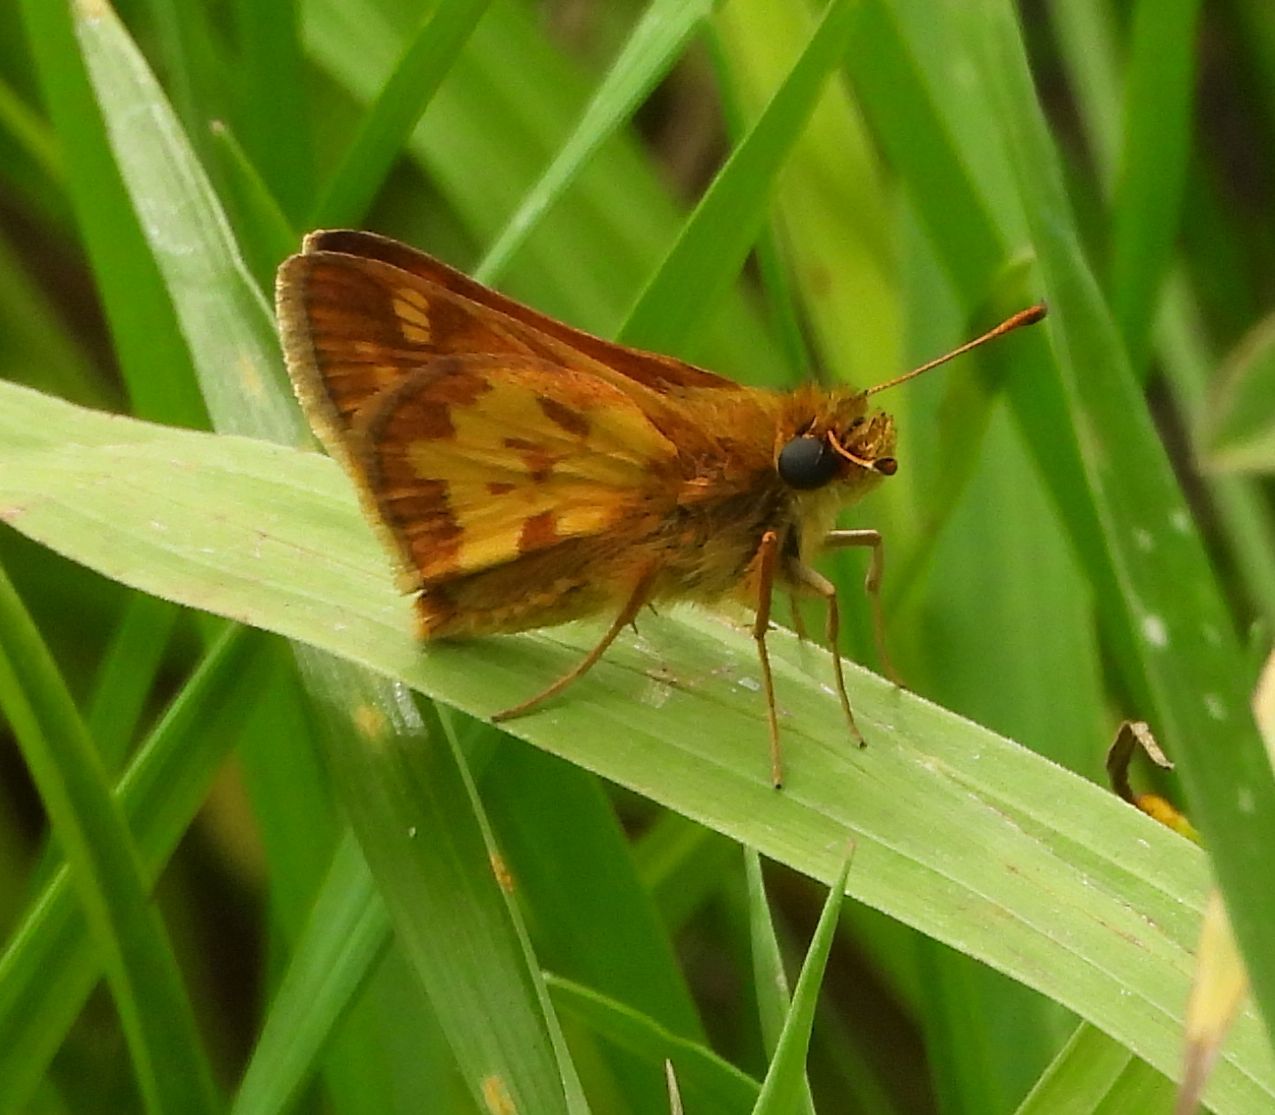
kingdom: Animalia
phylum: Arthropoda
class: Insecta
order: Lepidoptera
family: Hesperiidae
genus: Polites
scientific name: Polites coras
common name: Peck's skipper
